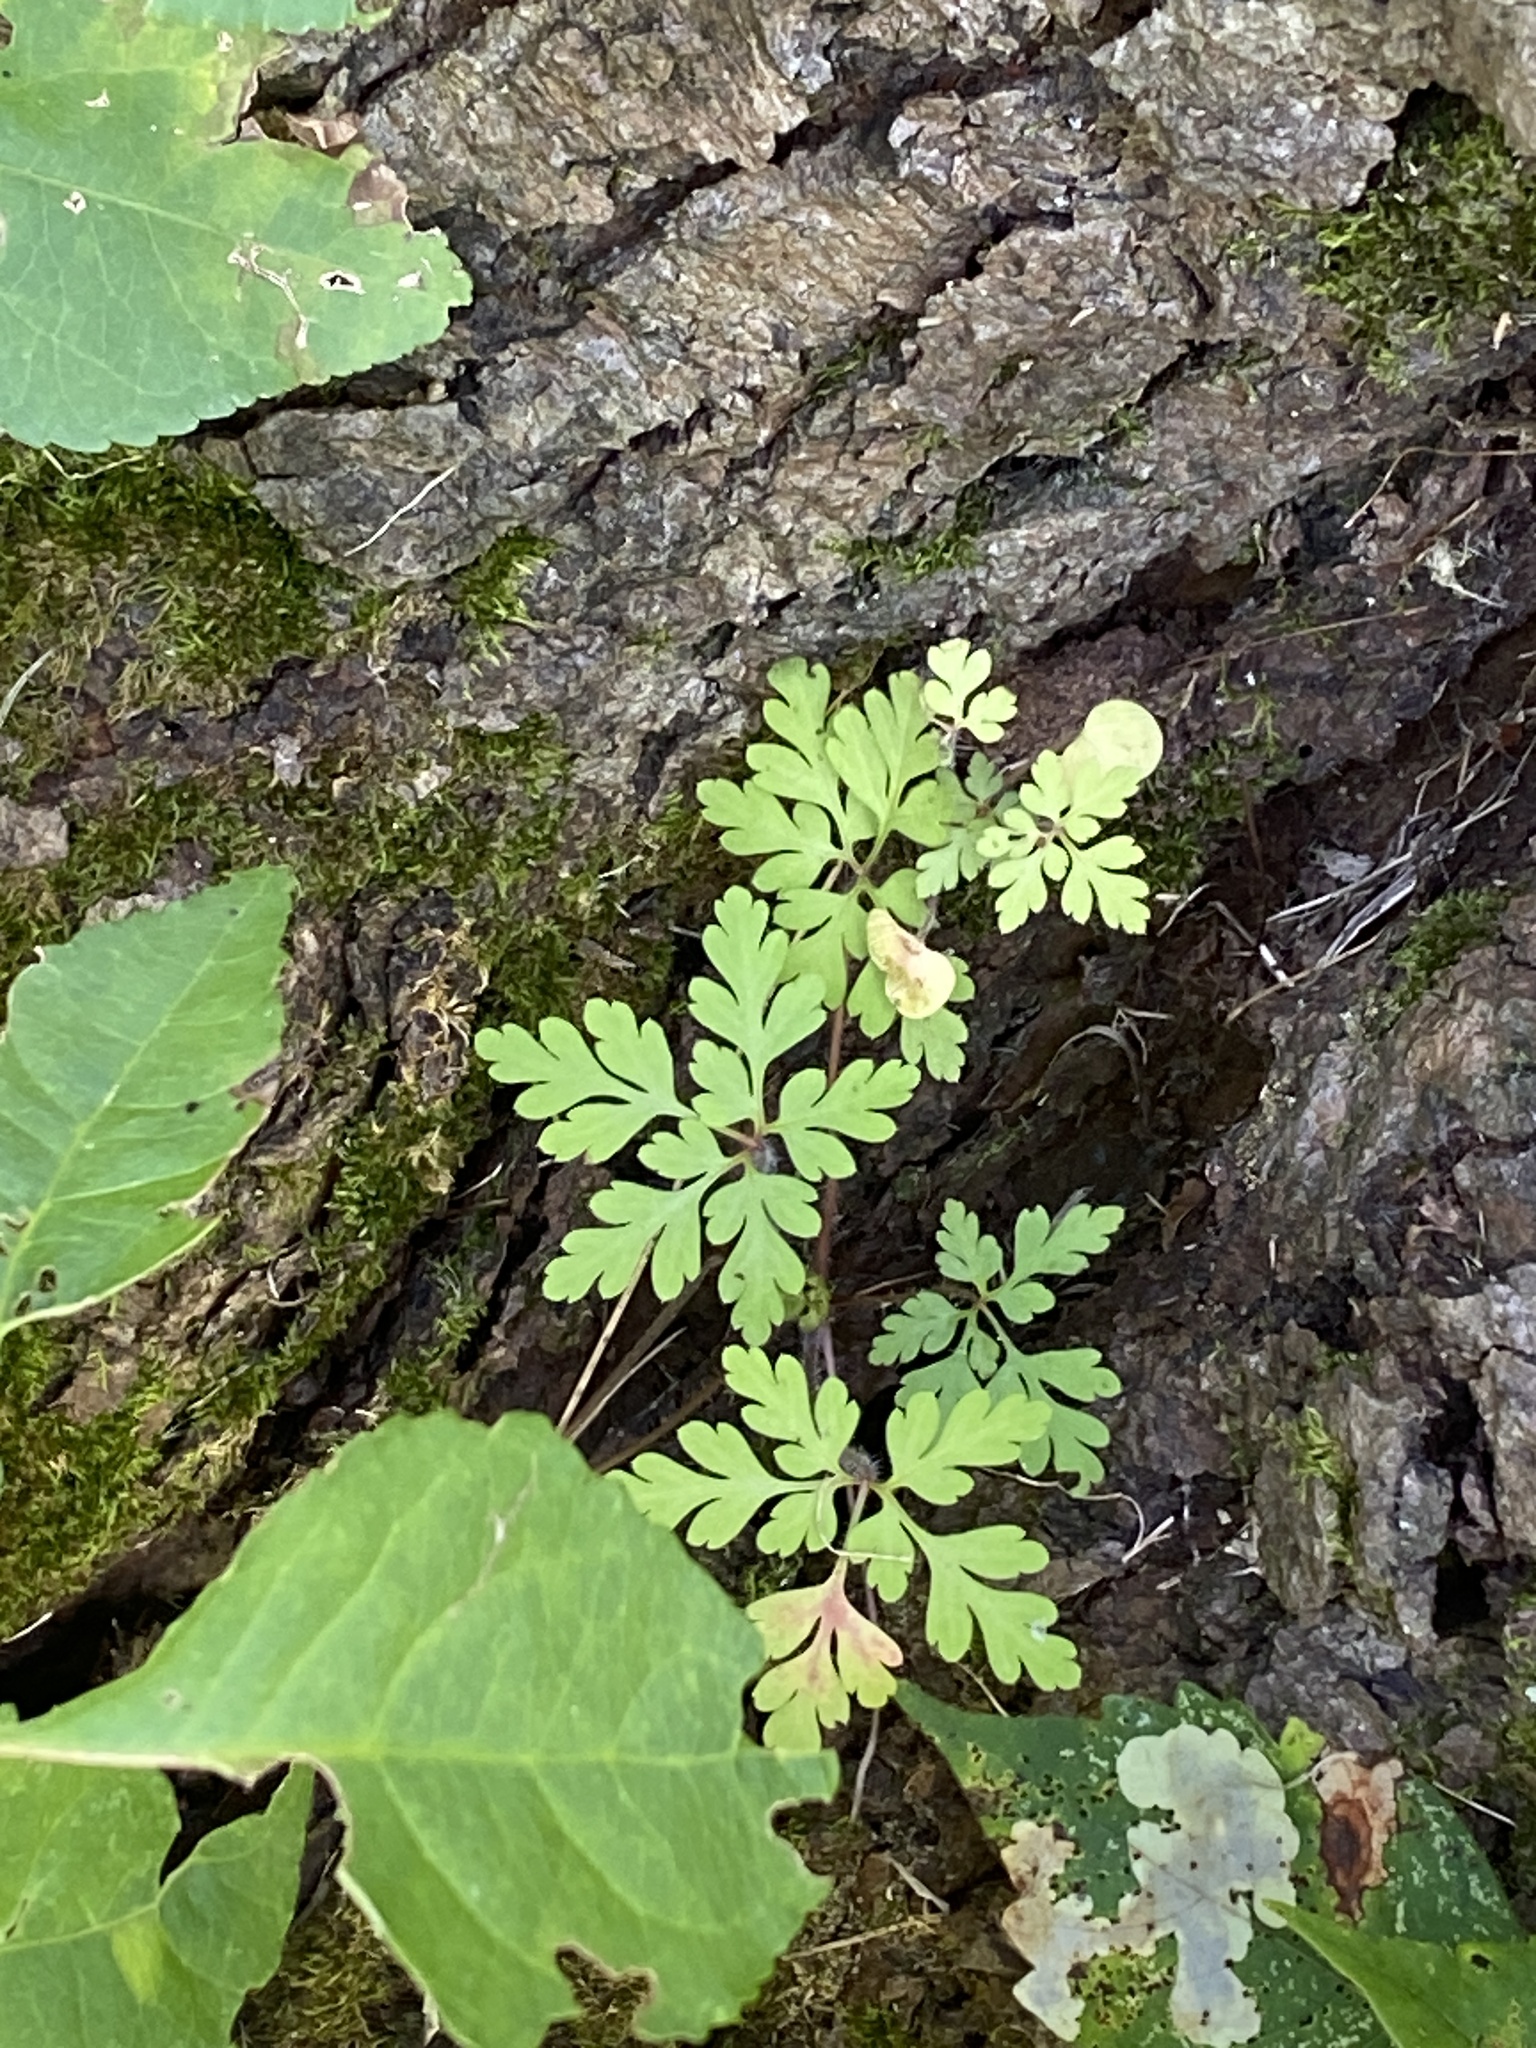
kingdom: Plantae
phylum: Tracheophyta
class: Magnoliopsida
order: Geraniales
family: Geraniaceae
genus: Geranium
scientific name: Geranium robertianum
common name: Herb-robert
